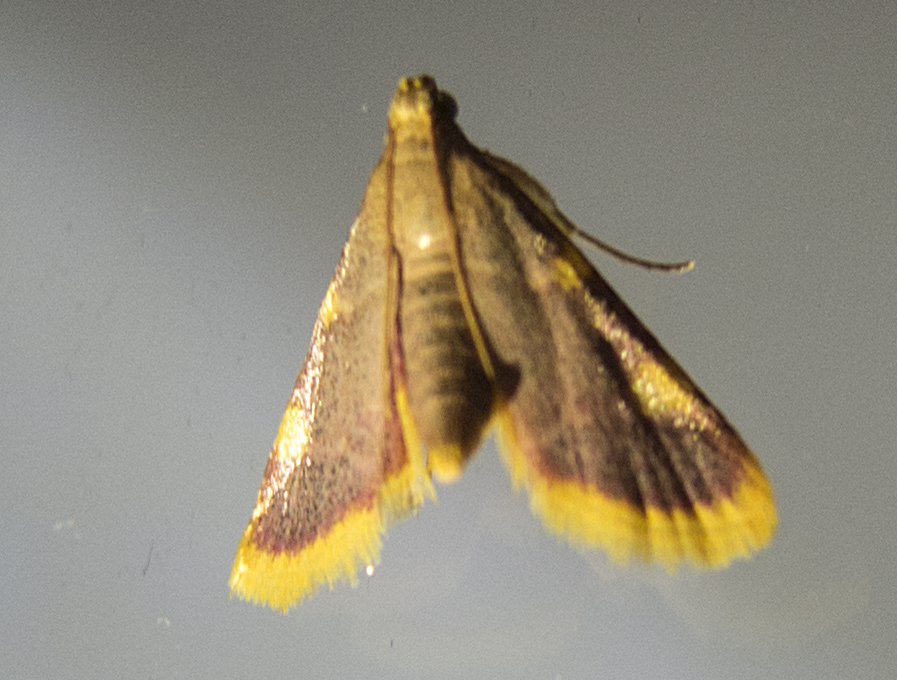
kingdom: Animalia
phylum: Arthropoda
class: Insecta
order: Lepidoptera
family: Pyralidae
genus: Hypsopygia
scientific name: Hypsopygia costalis
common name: Gold triangle
